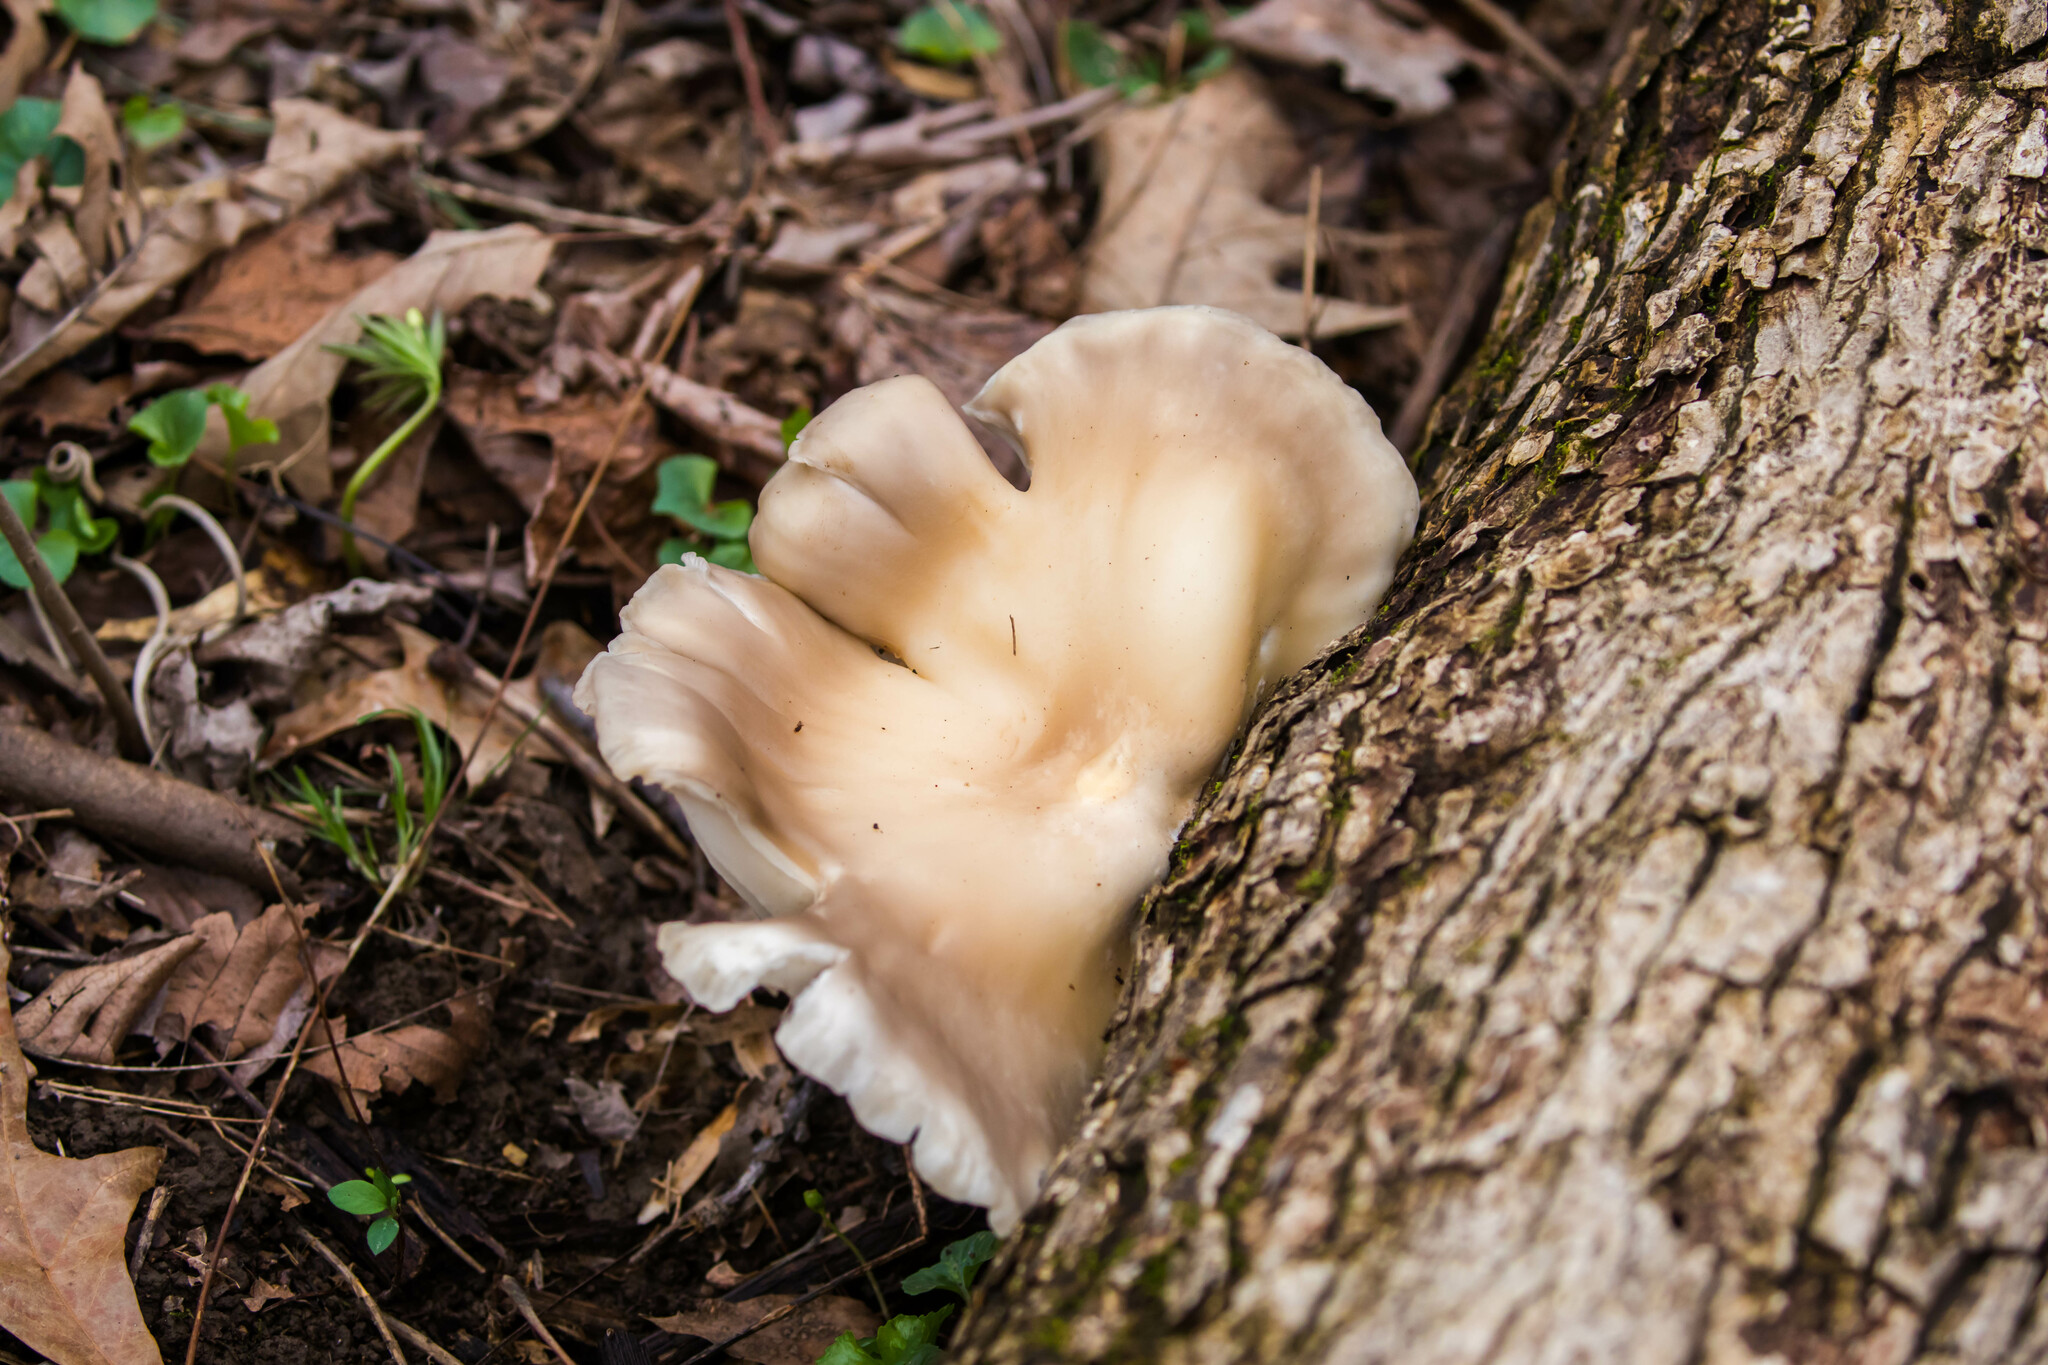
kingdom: Fungi
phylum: Basidiomycota
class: Agaricomycetes
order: Agaricales
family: Pleurotaceae
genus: Pleurotus
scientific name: Pleurotus ostreatus
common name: Oyster mushroom
